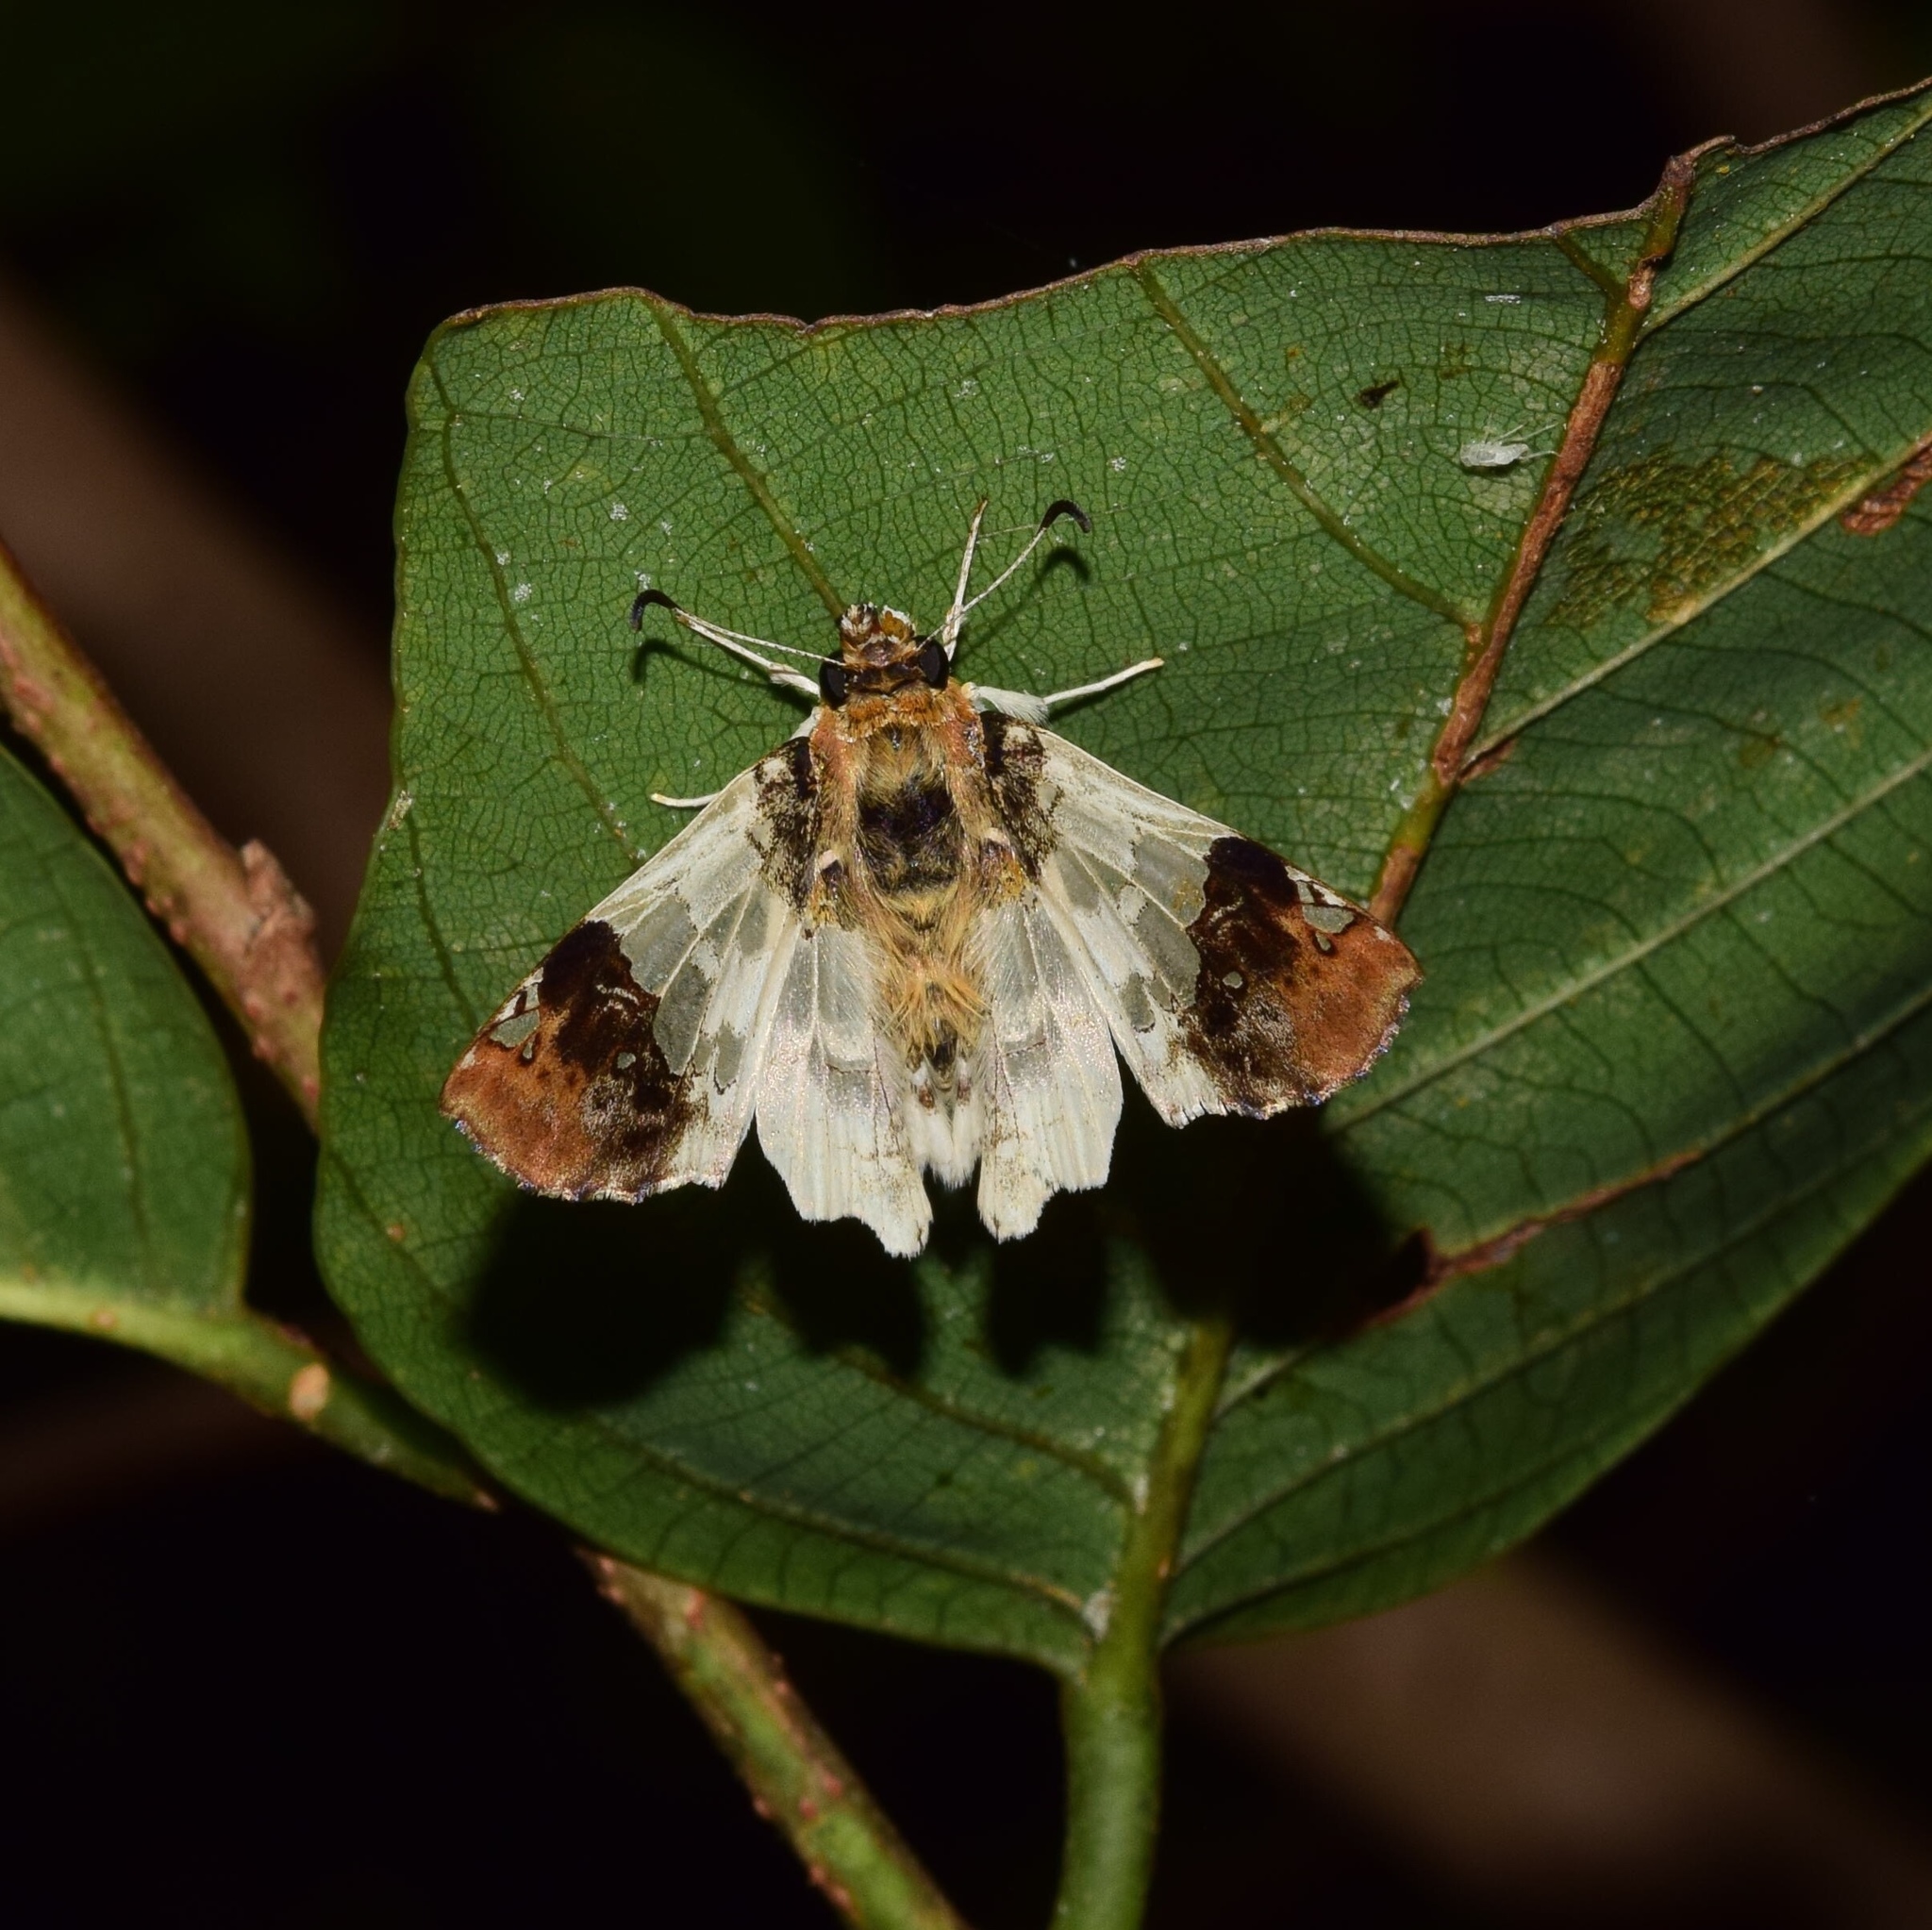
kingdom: Animalia
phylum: Arthropoda
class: Insecta
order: Lepidoptera
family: Hesperiidae
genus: Abantis
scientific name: Abantis
